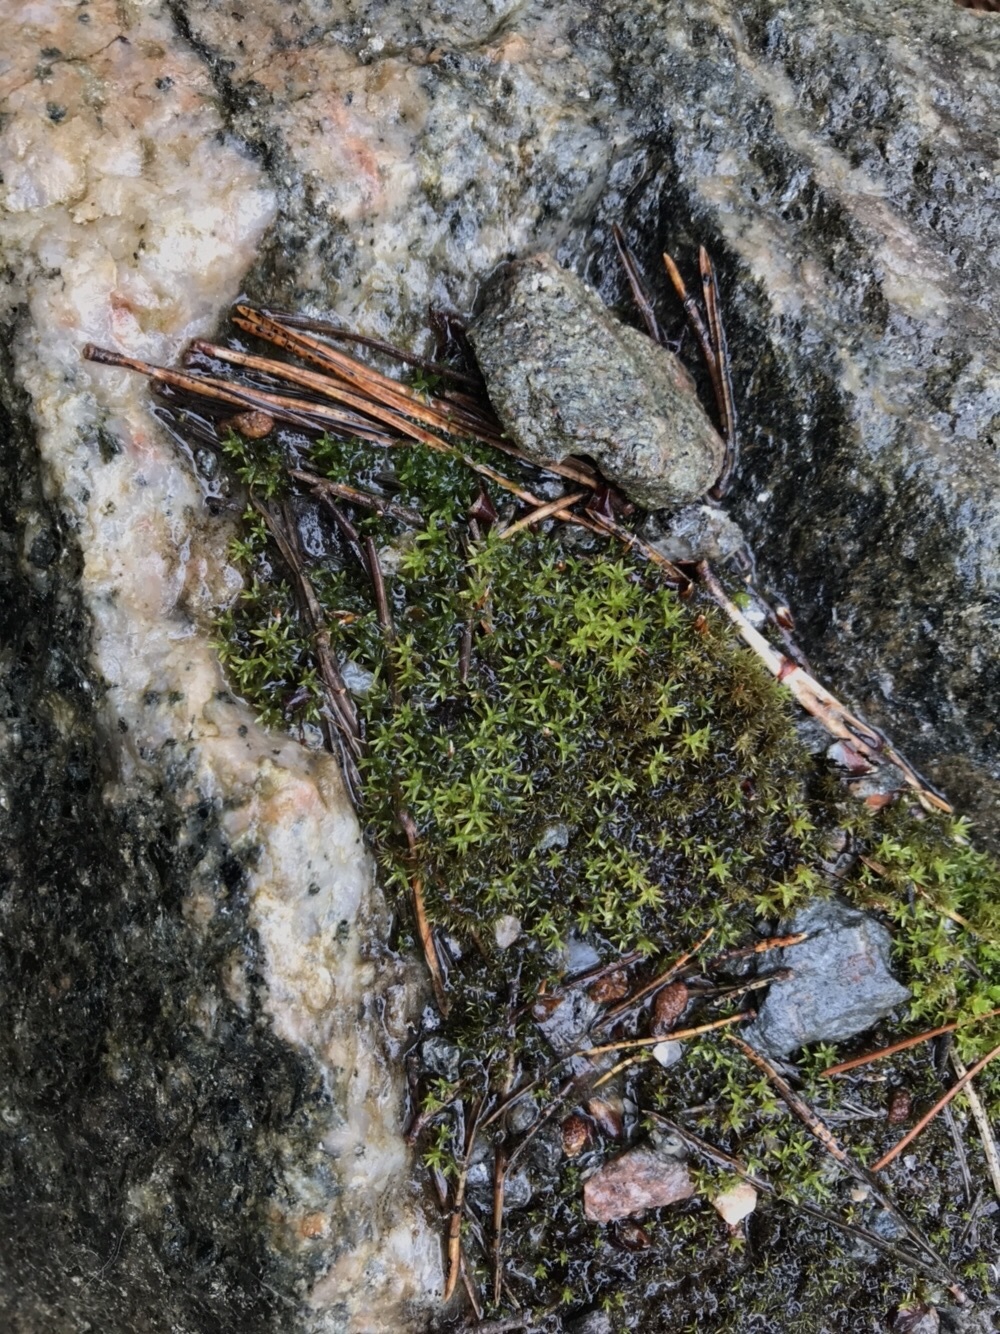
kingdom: Plantae
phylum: Bryophyta
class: Bryopsida
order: Pottiales
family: Pottiaceae
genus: Barbula
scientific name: Barbula unguiculata
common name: Prickly beard moss
